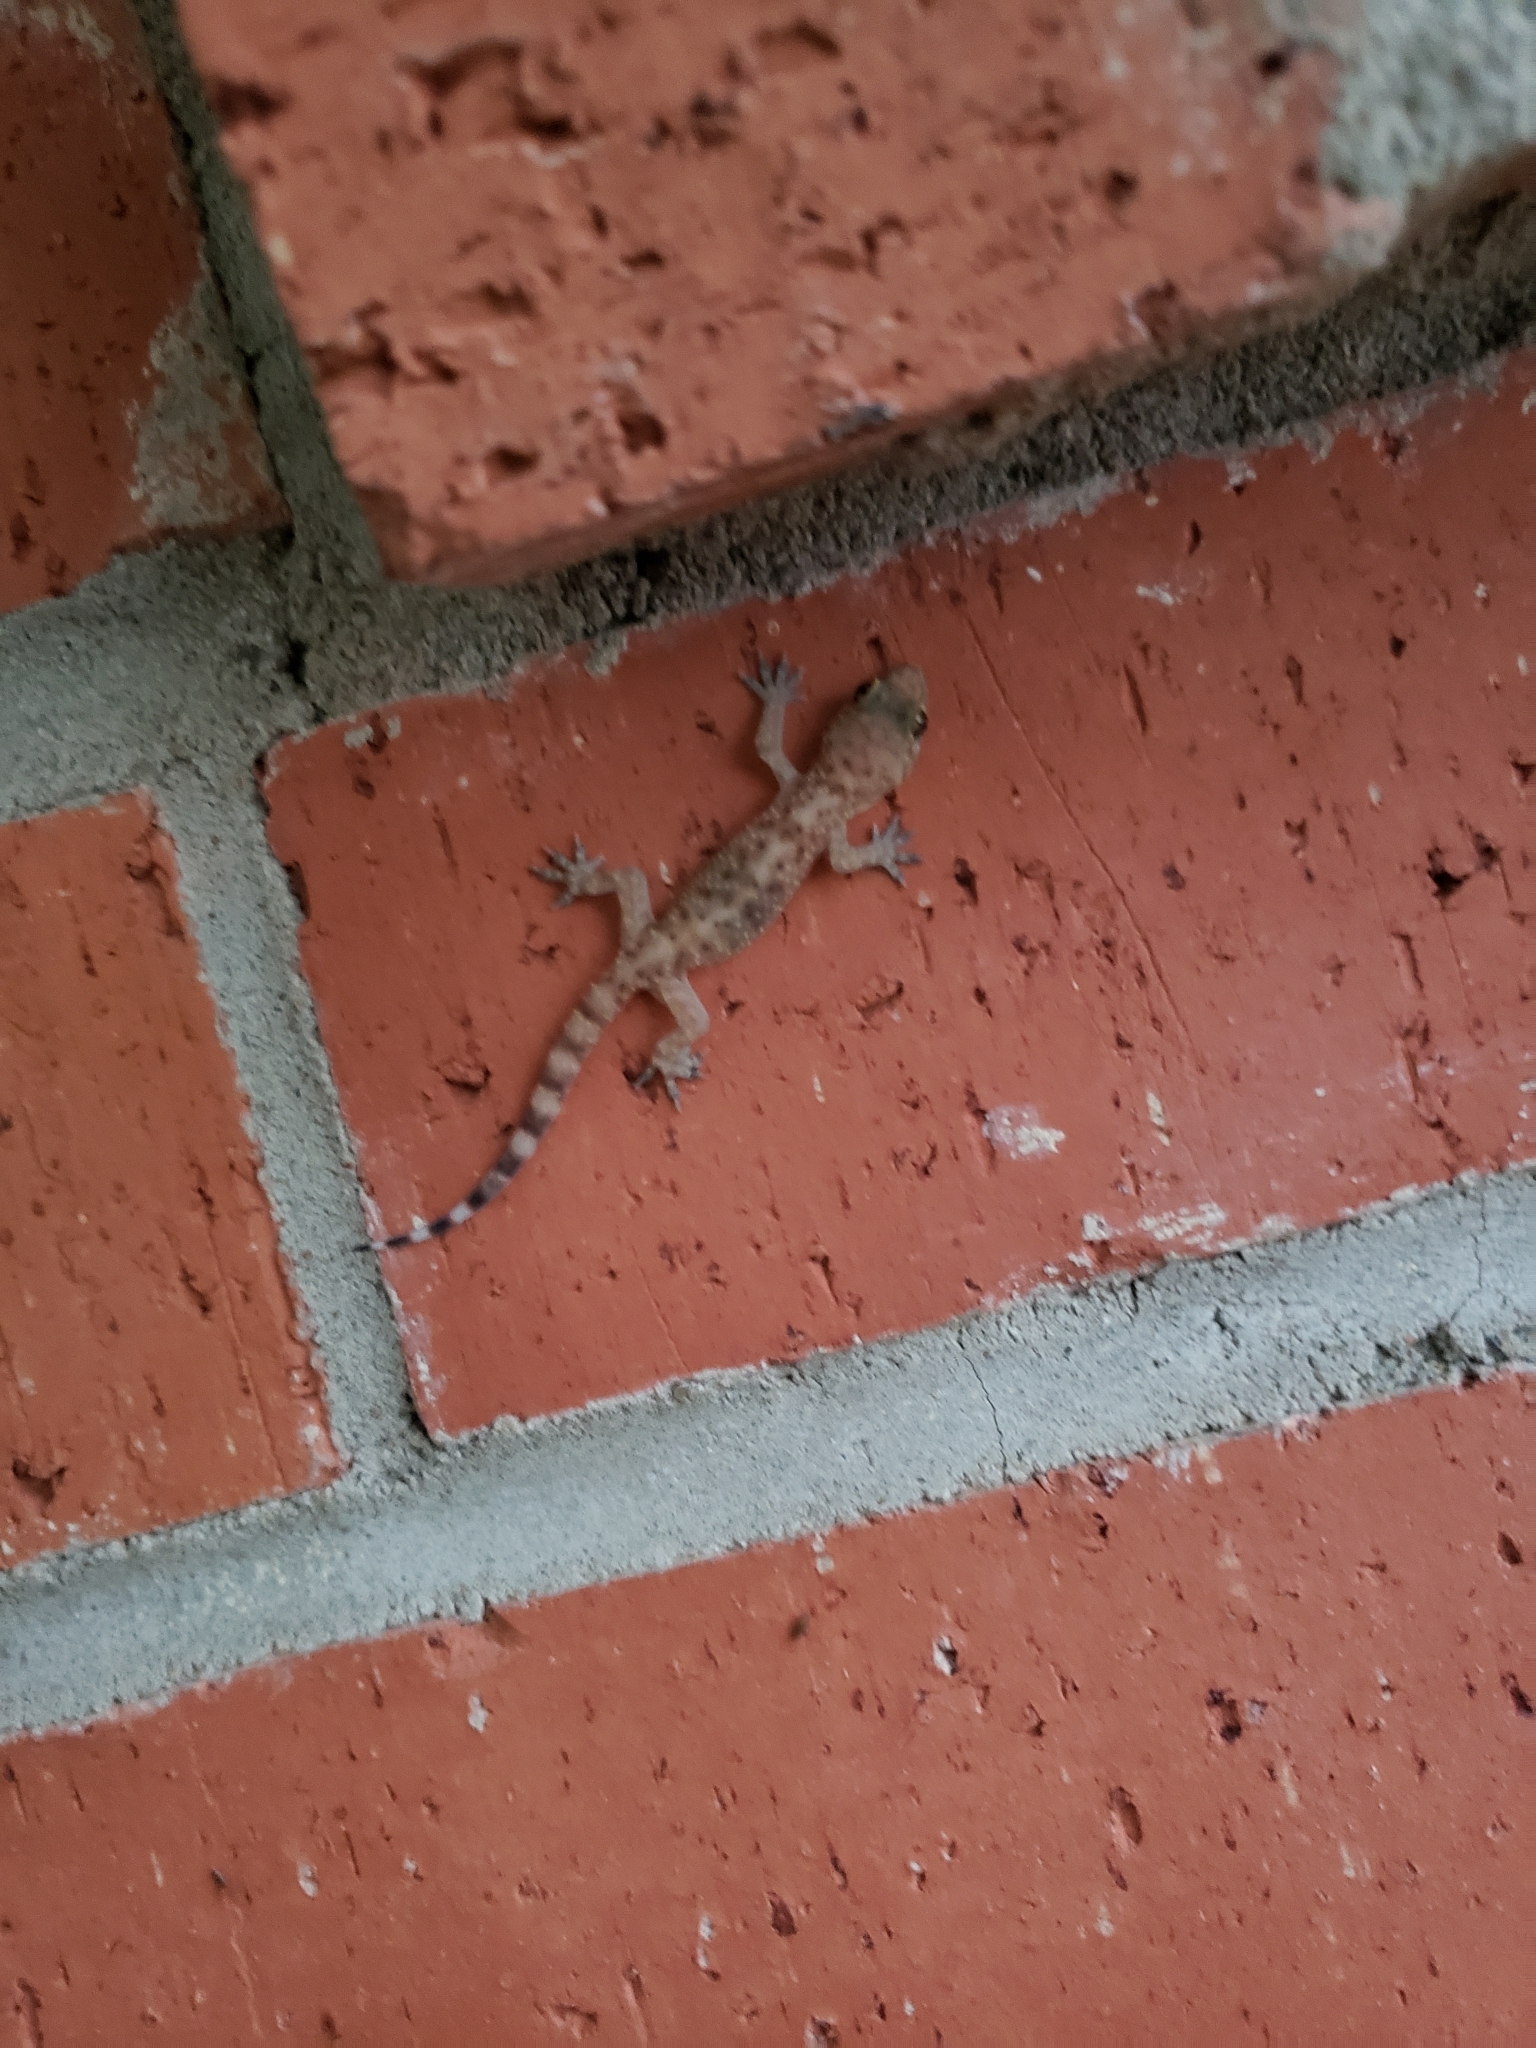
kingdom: Animalia
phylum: Chordata
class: Squamata
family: Gekkonidae
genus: Hemidactylus
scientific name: Hemidactylus turcicus
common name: Turkish gecko
